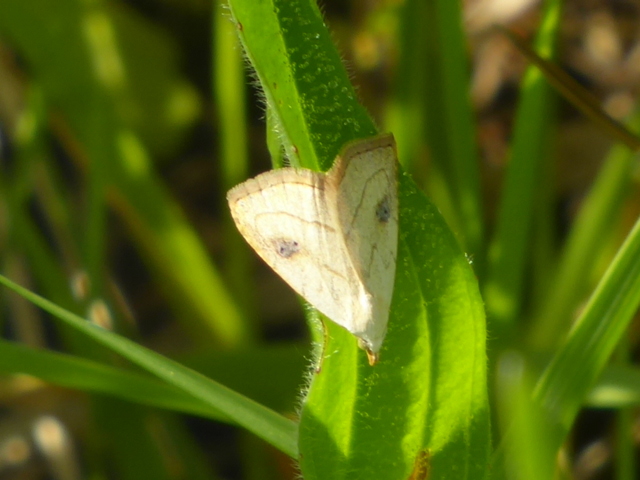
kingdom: Animalia
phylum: Arthropoda
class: Insecta
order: Lepidoptera
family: Erebidae
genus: Rivula
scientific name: Rivula propinqualis
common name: Spotted grass moth
